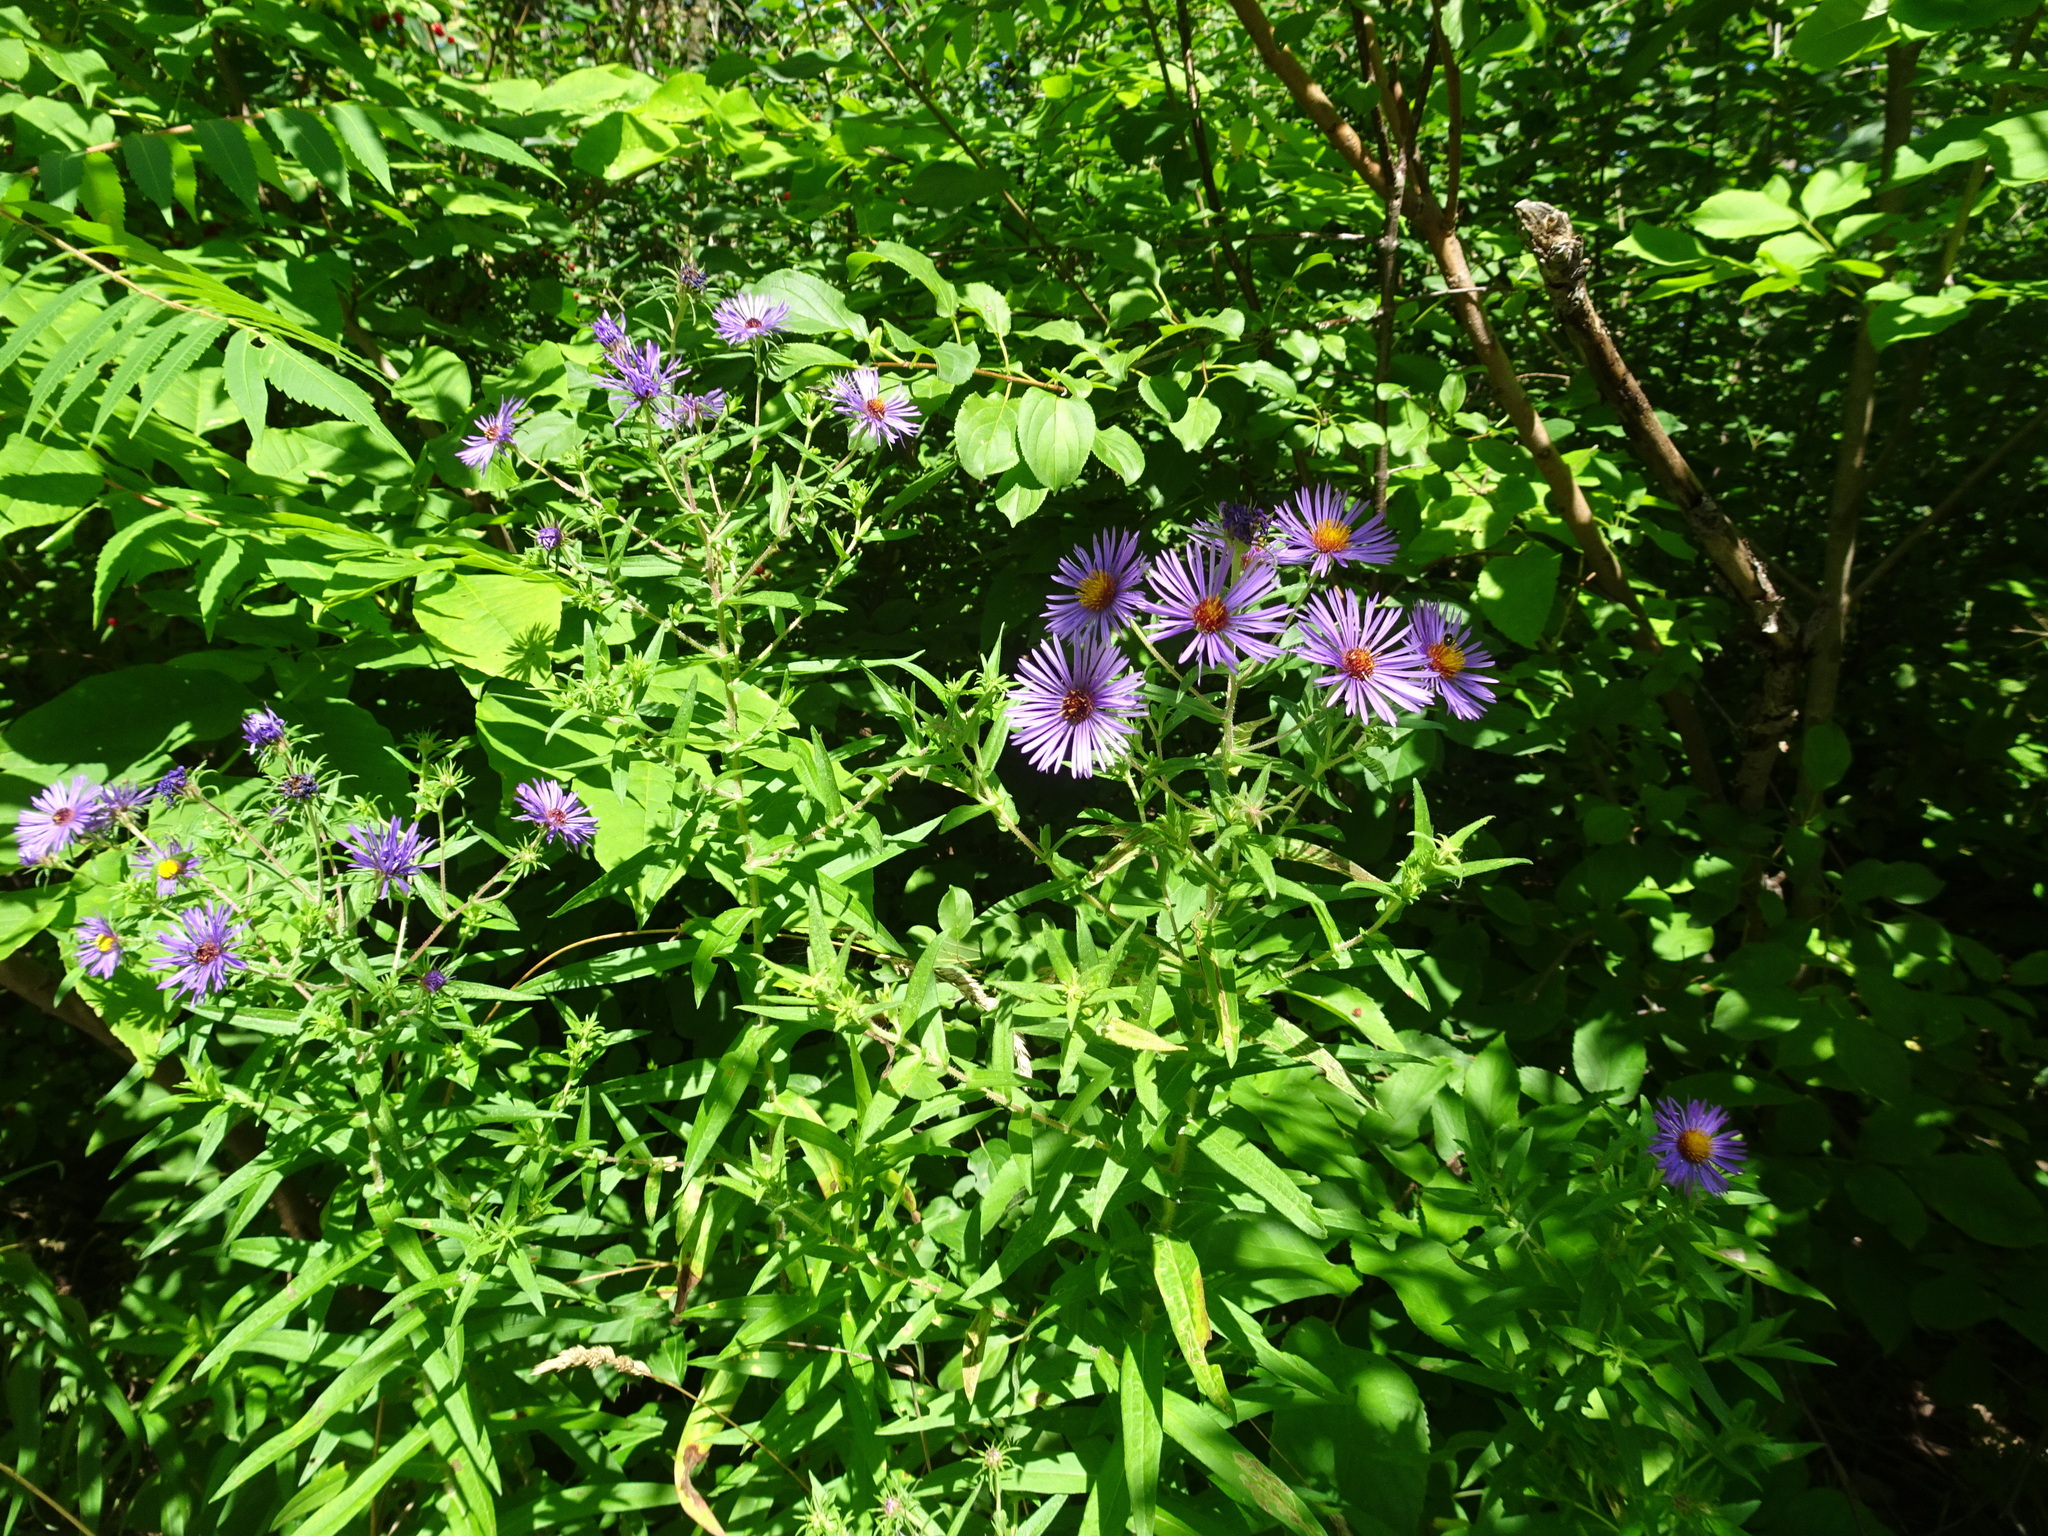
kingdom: Plantae
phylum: Tracheophyta
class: Magnoliopsida
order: Asterales
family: Asteraceae
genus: Symphyotrichum
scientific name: Symphyotrichum novae-angliae
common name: Michaelmas daisy
